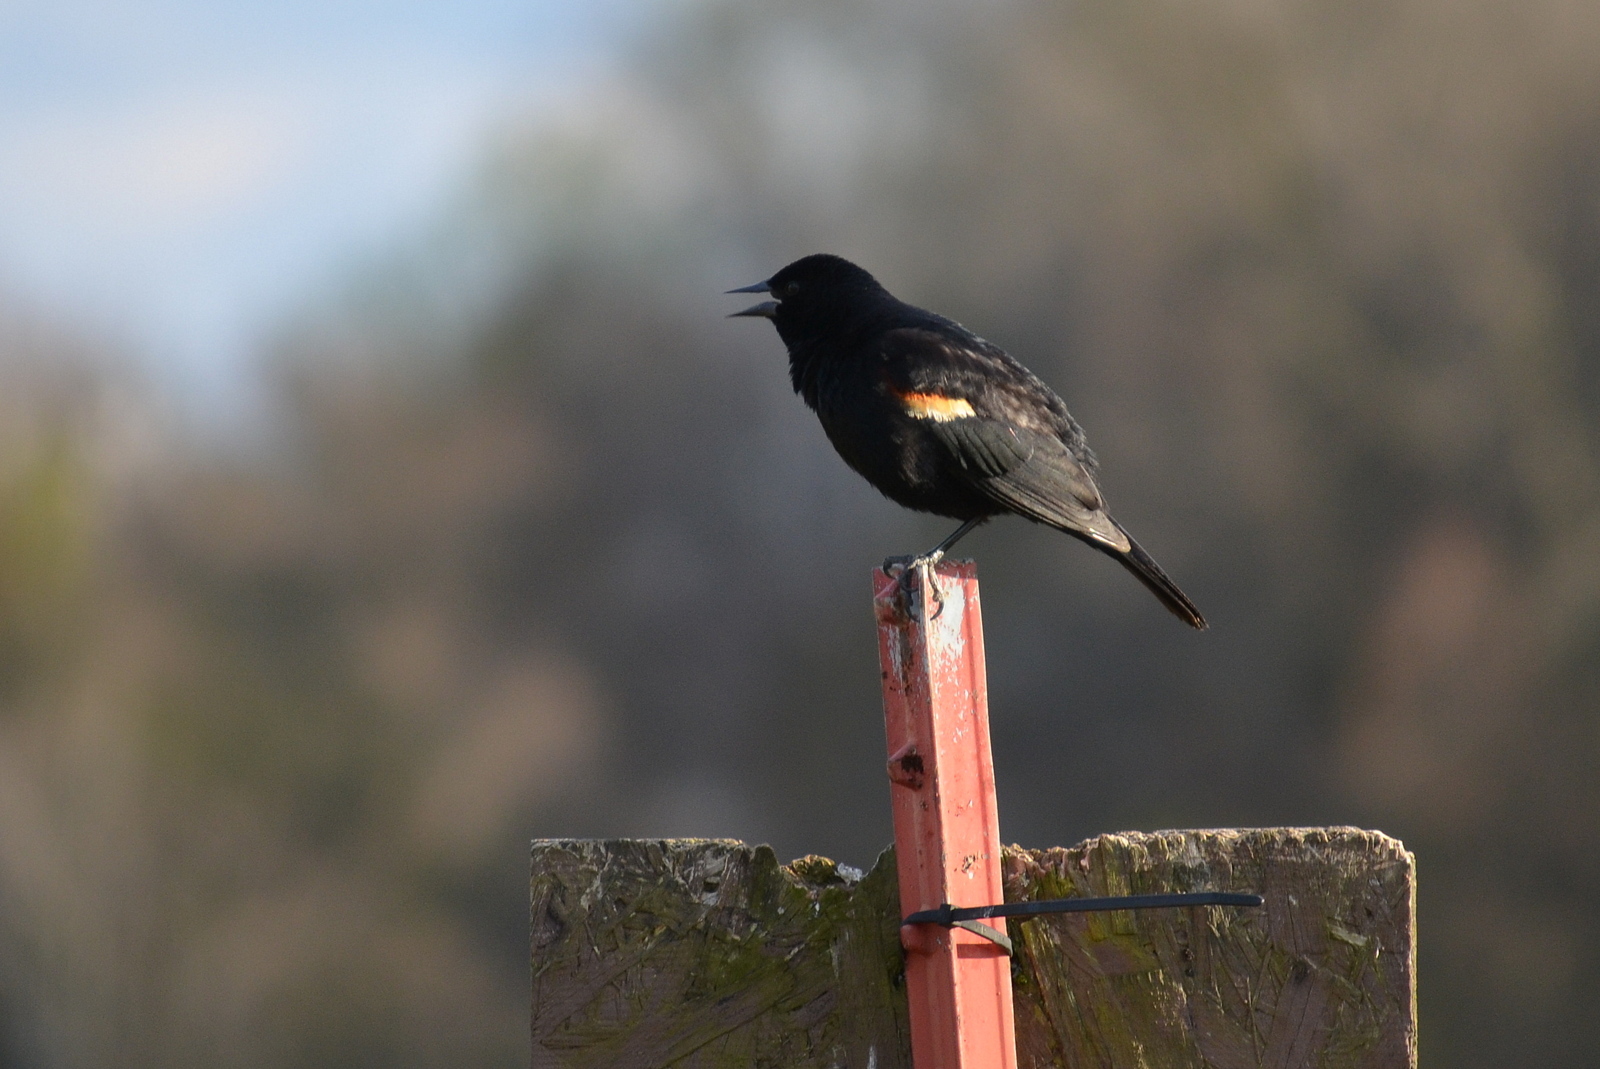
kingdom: Animalia
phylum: Chordata
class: Aves
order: Passeriformes
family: Icteridae
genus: Agelaius
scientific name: Agelaius phoeniceus
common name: Red-winged blackbird
